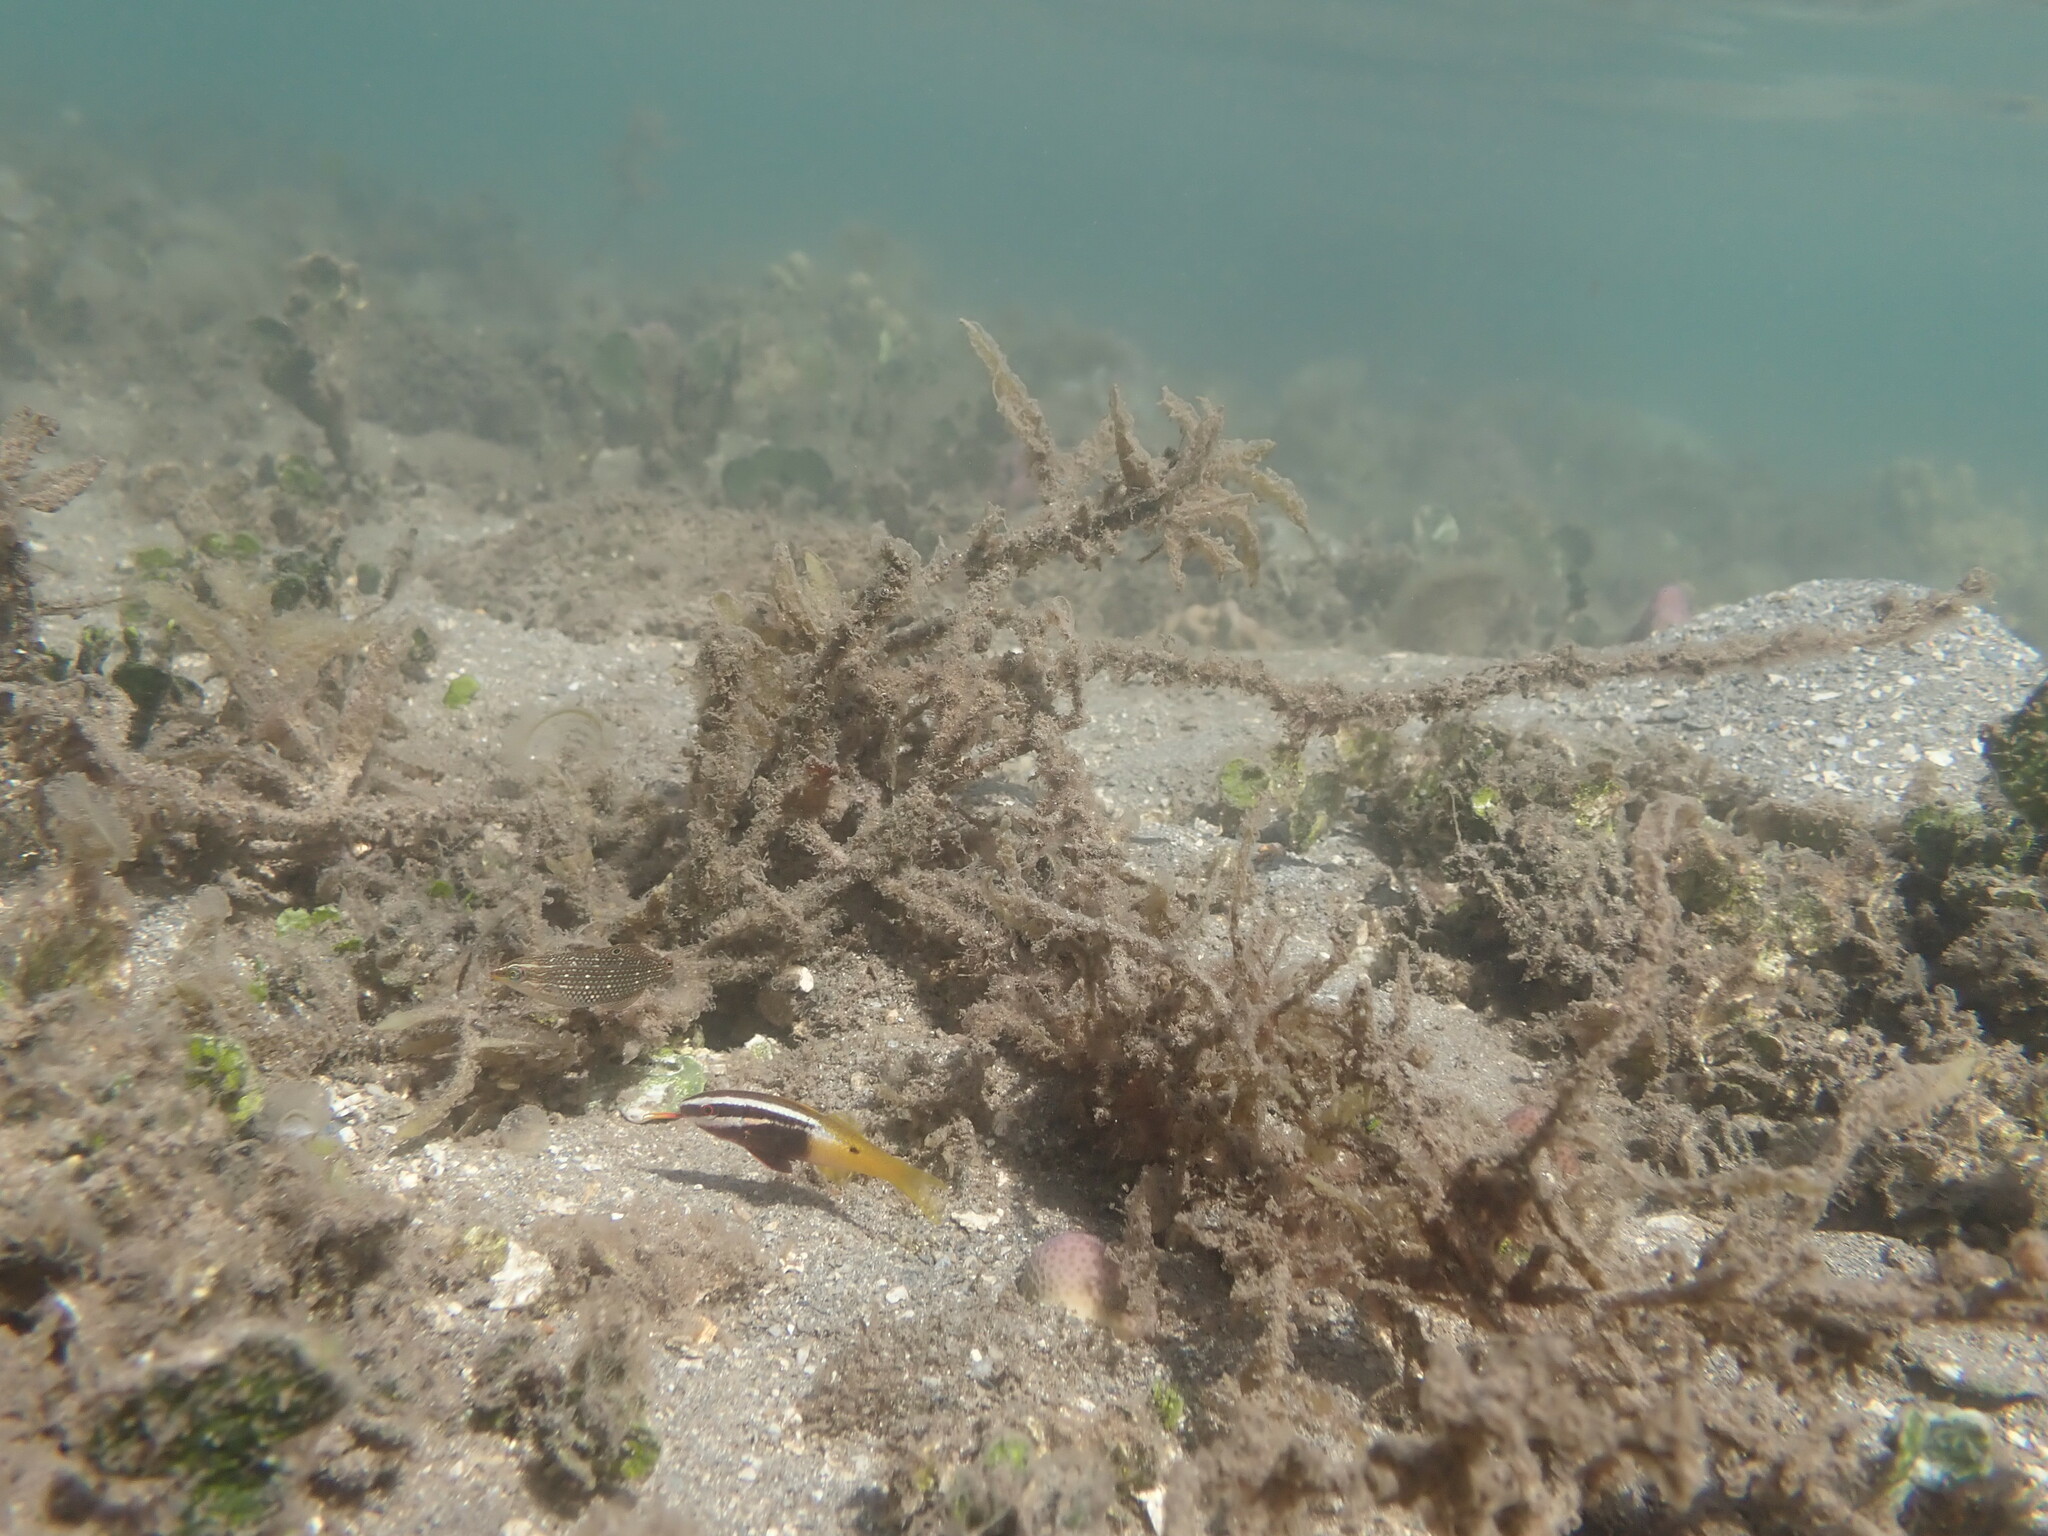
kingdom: Animalia
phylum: Chordata
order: Perciformes
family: Mullidae
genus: Parupeneus
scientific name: Parupeneus barberinoides
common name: Half-and-half goatfish
